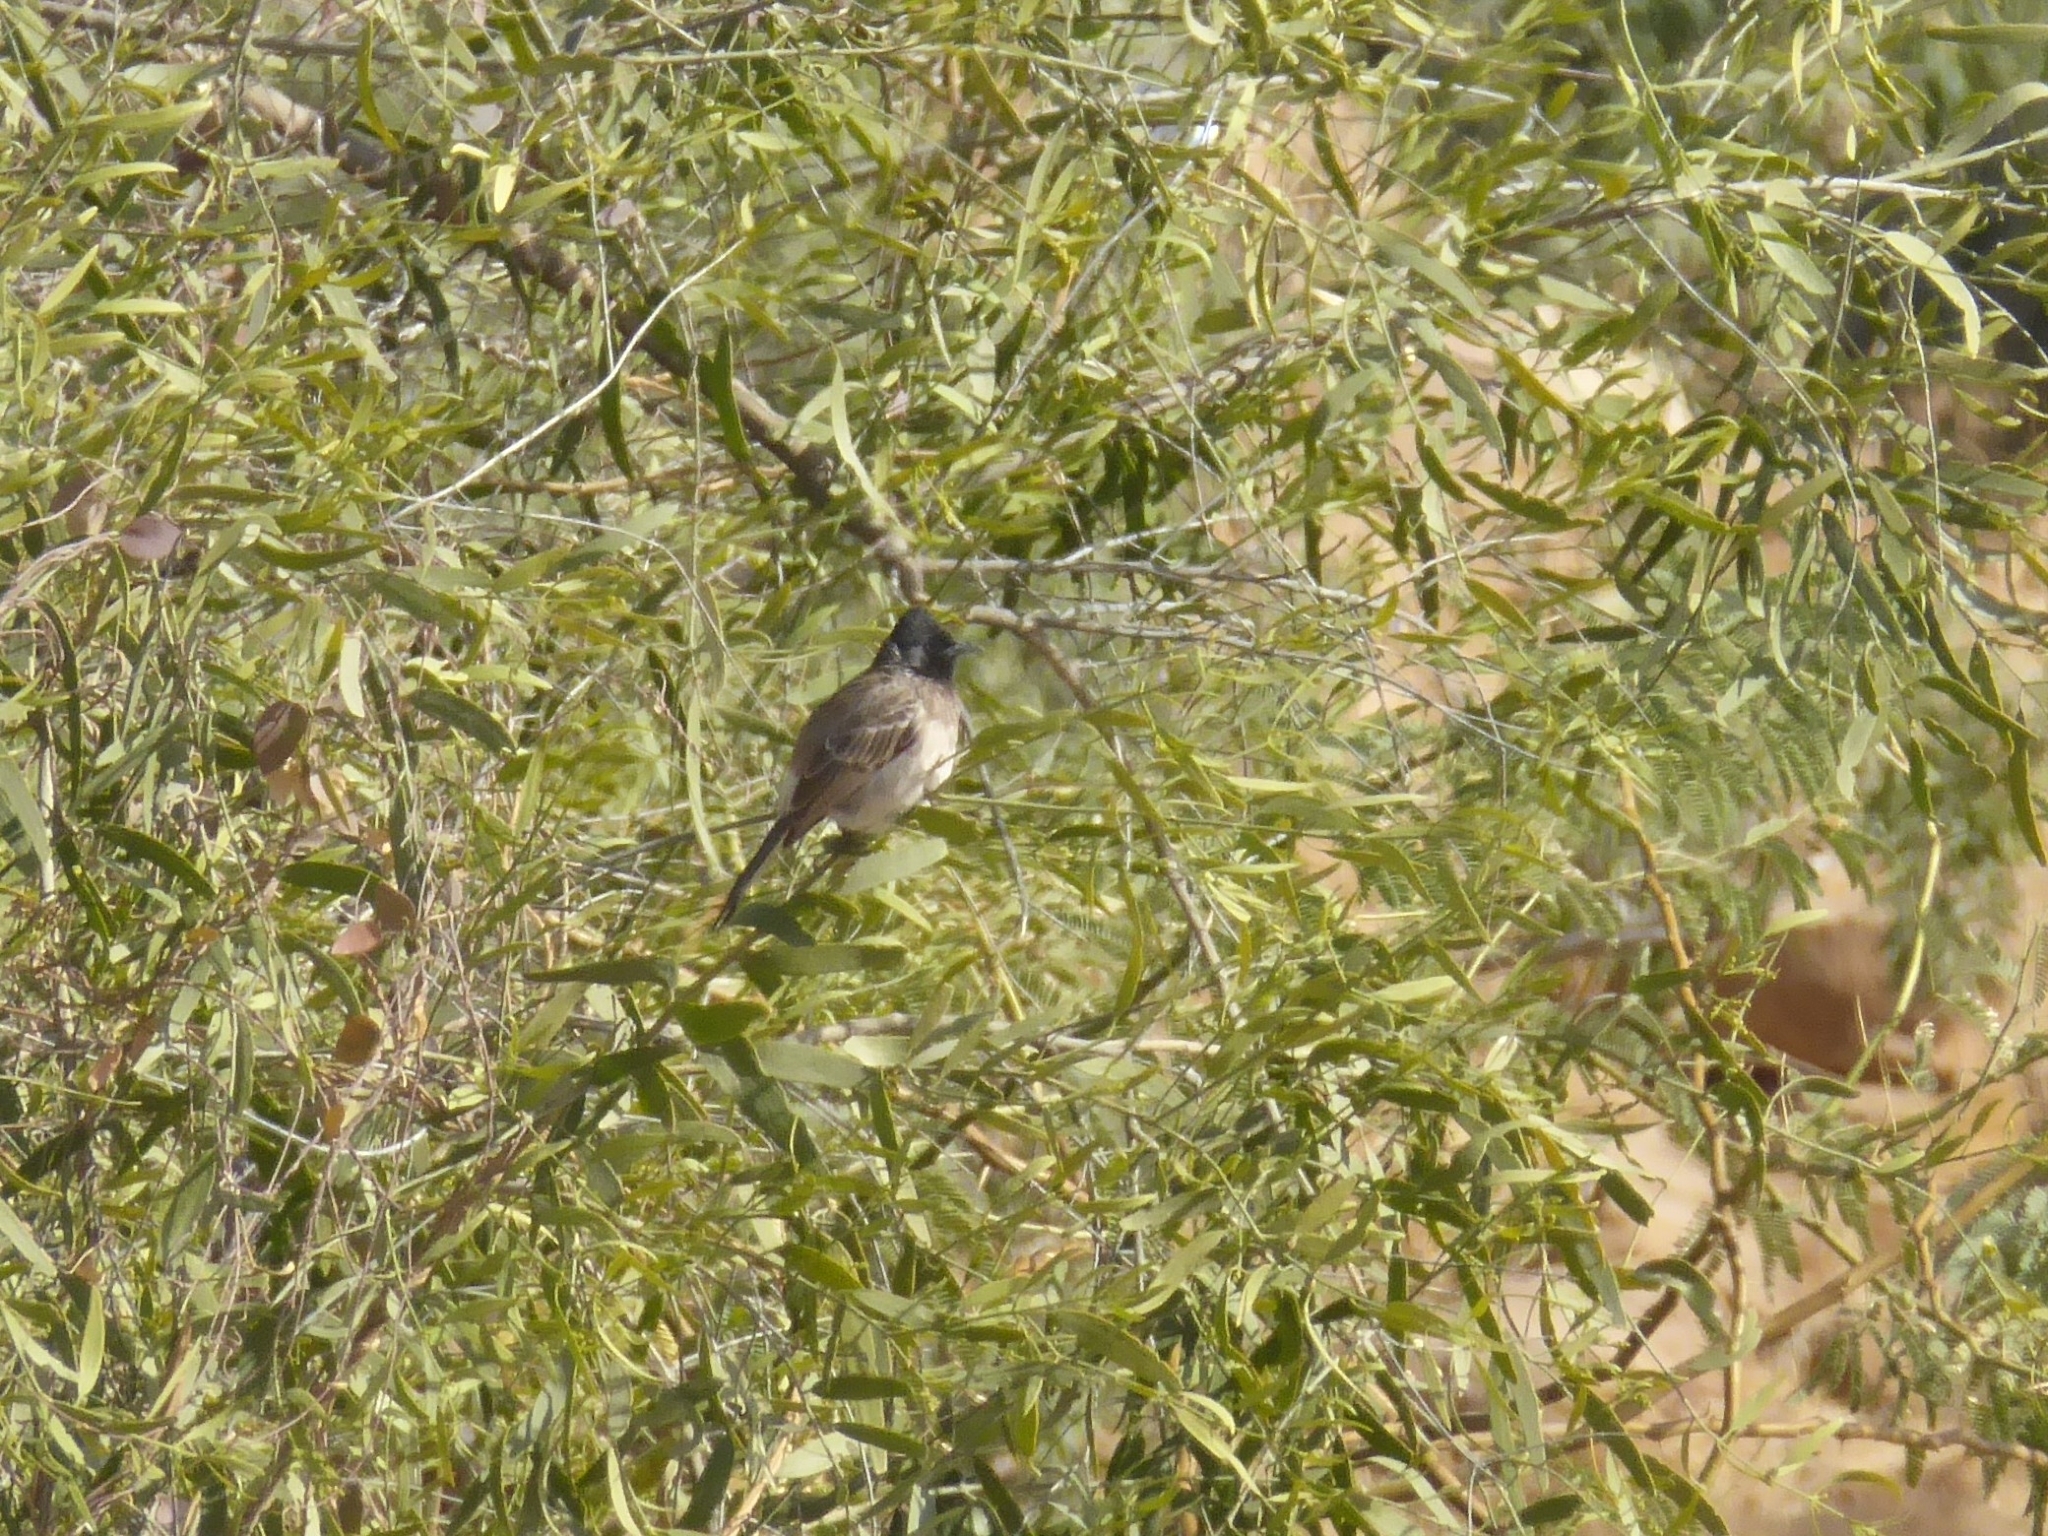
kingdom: Animalia
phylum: Chordata
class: Aves
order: Passeriformes
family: Pycnonotidae
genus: Pycnonotus
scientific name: Pycnonotus cafer
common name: Red-vented bulbul
